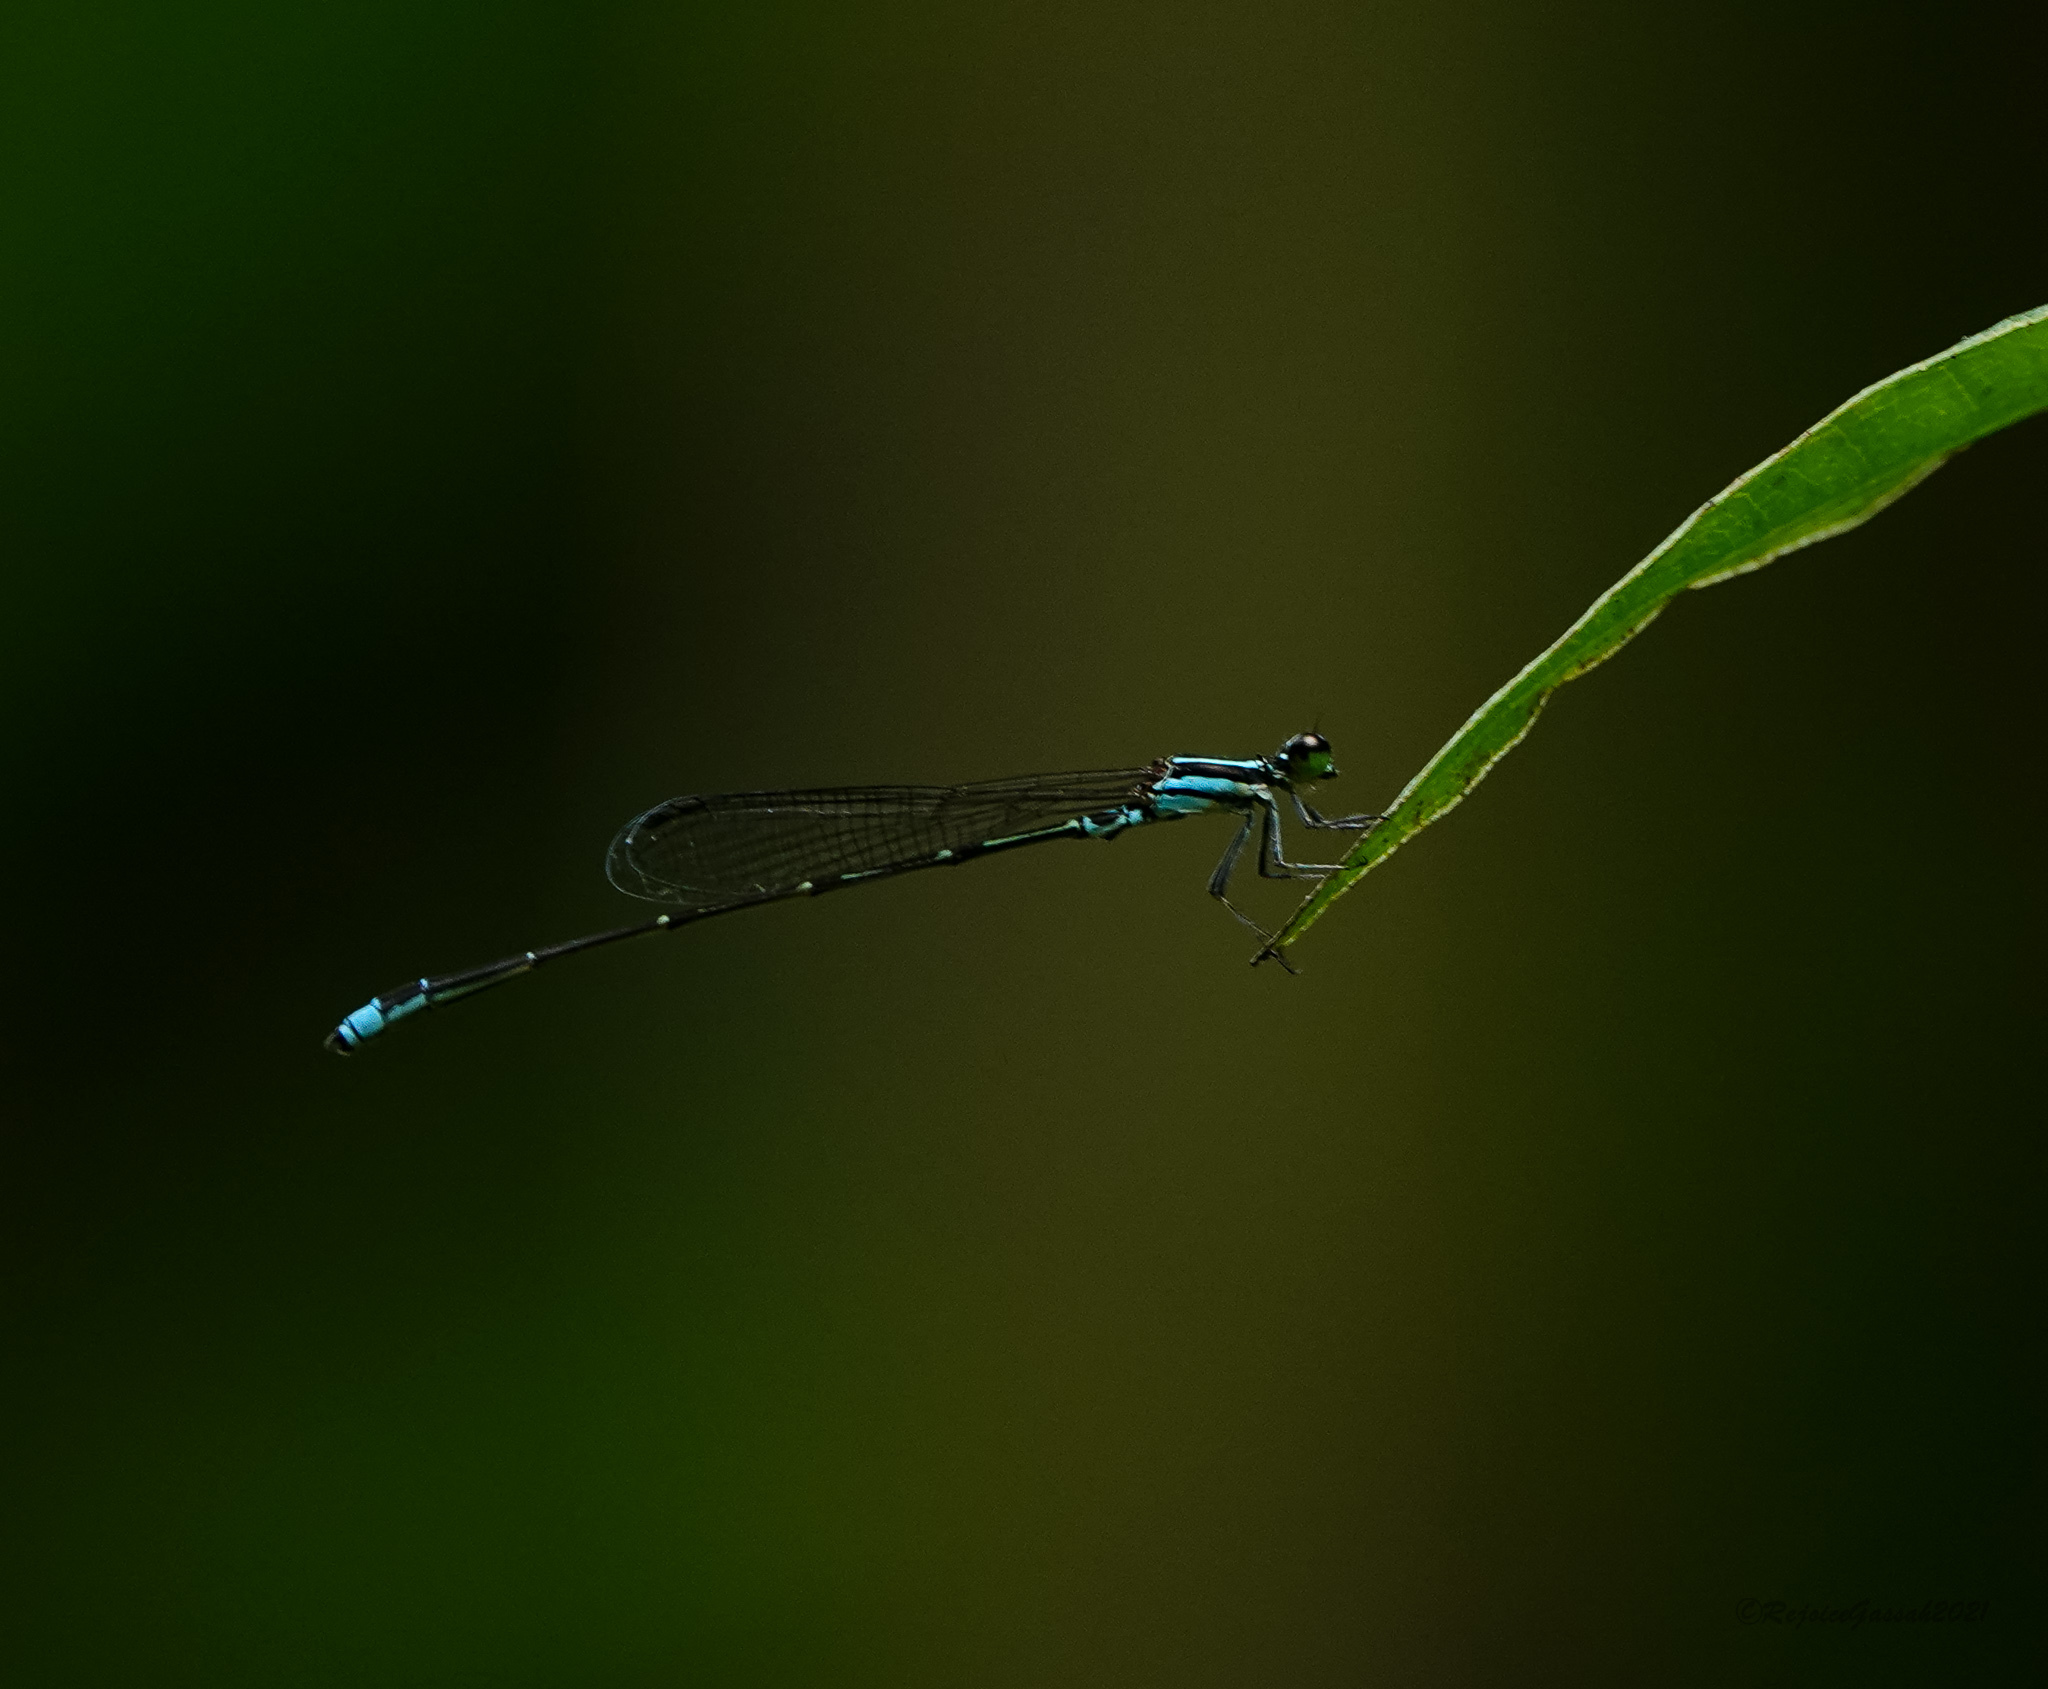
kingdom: Animalia
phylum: Arthropoda
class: Insecta
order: Odonata
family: Coenagrionidae
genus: Mortonagrion
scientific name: Mortonagrion aborense
